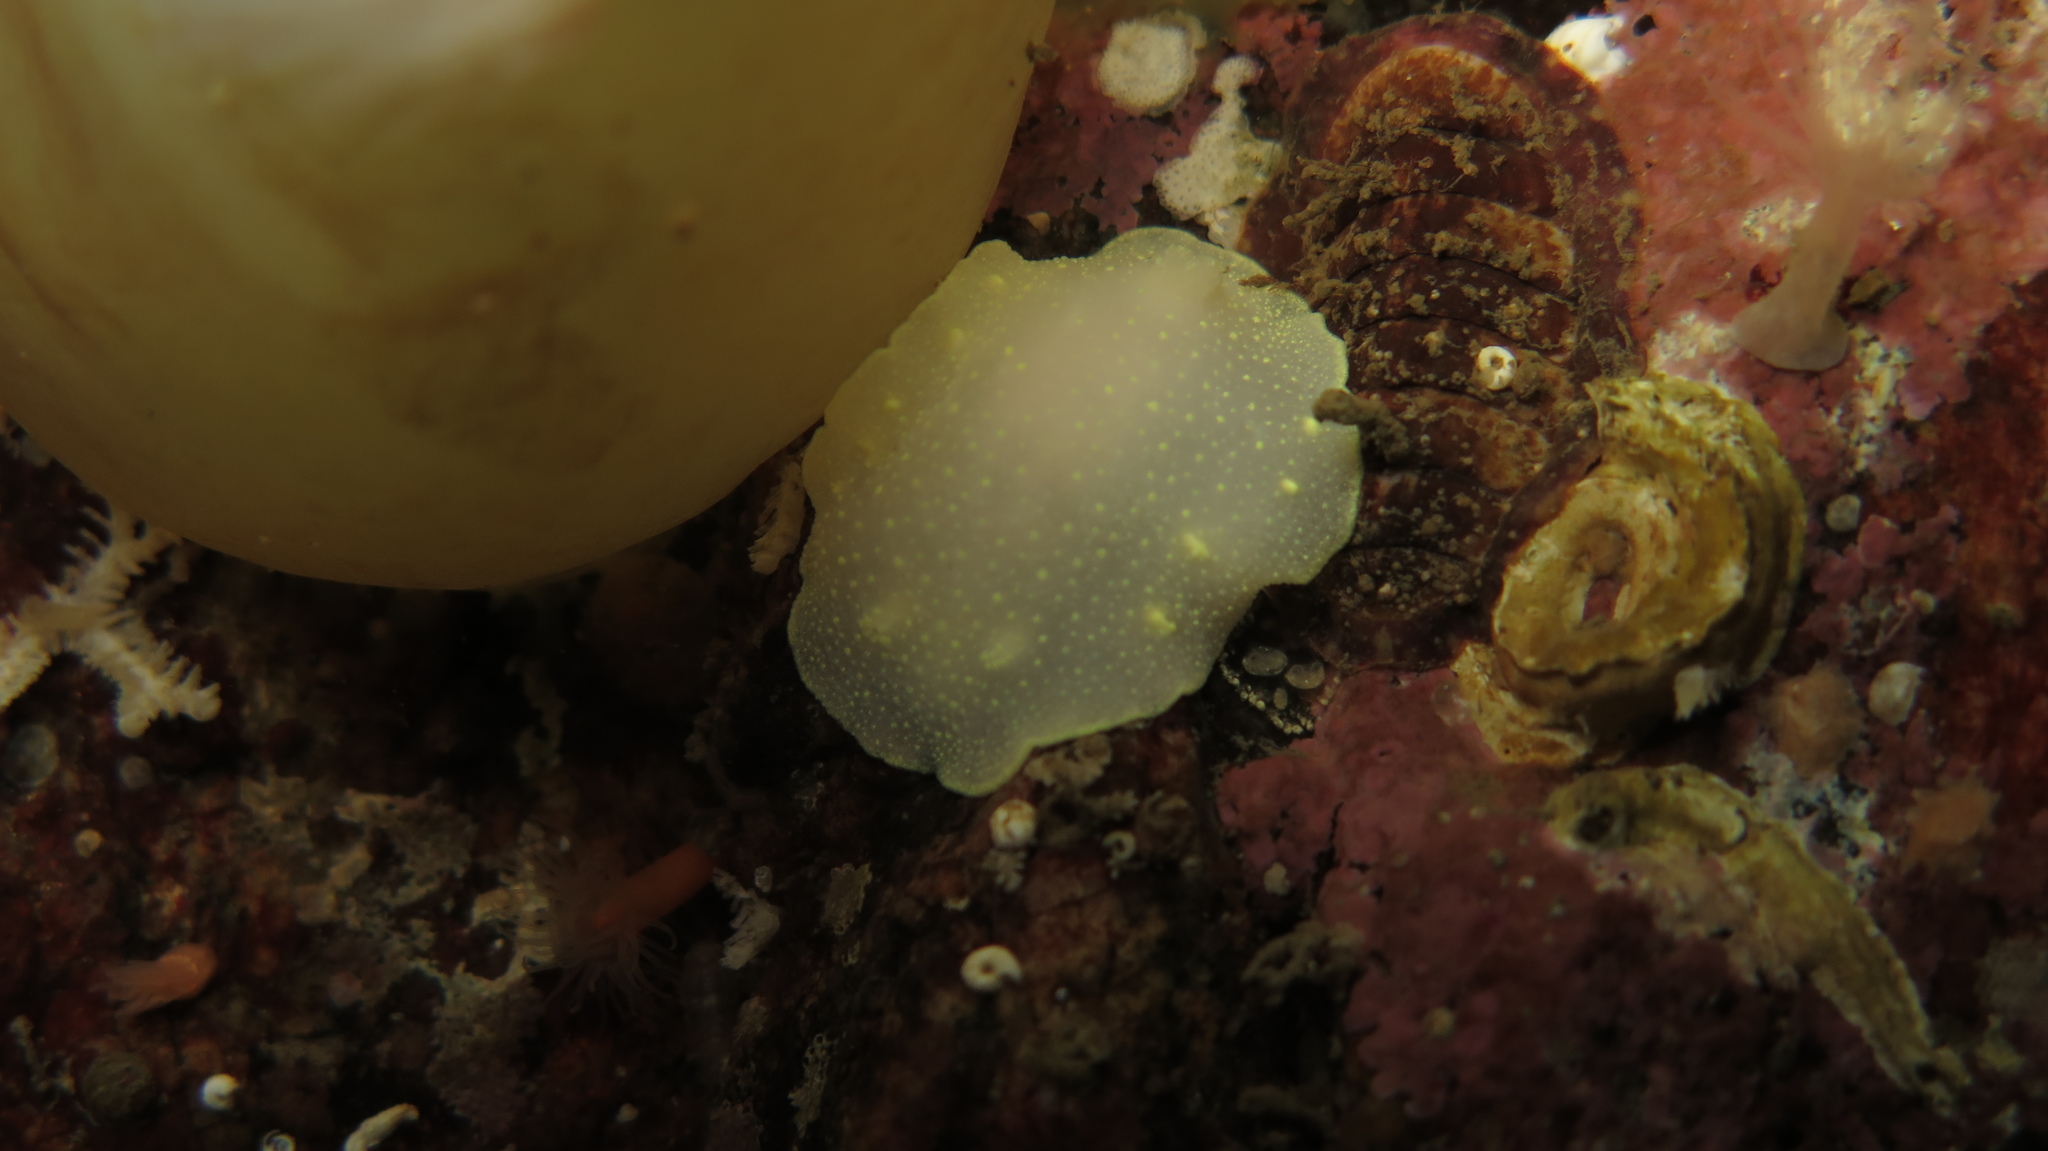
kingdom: Animalia
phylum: Mollusca
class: Gastropoda
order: Nudibranchia
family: Cadlinidae
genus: Cadlina
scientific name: Cadlina laevis
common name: White atlantic cadlina
